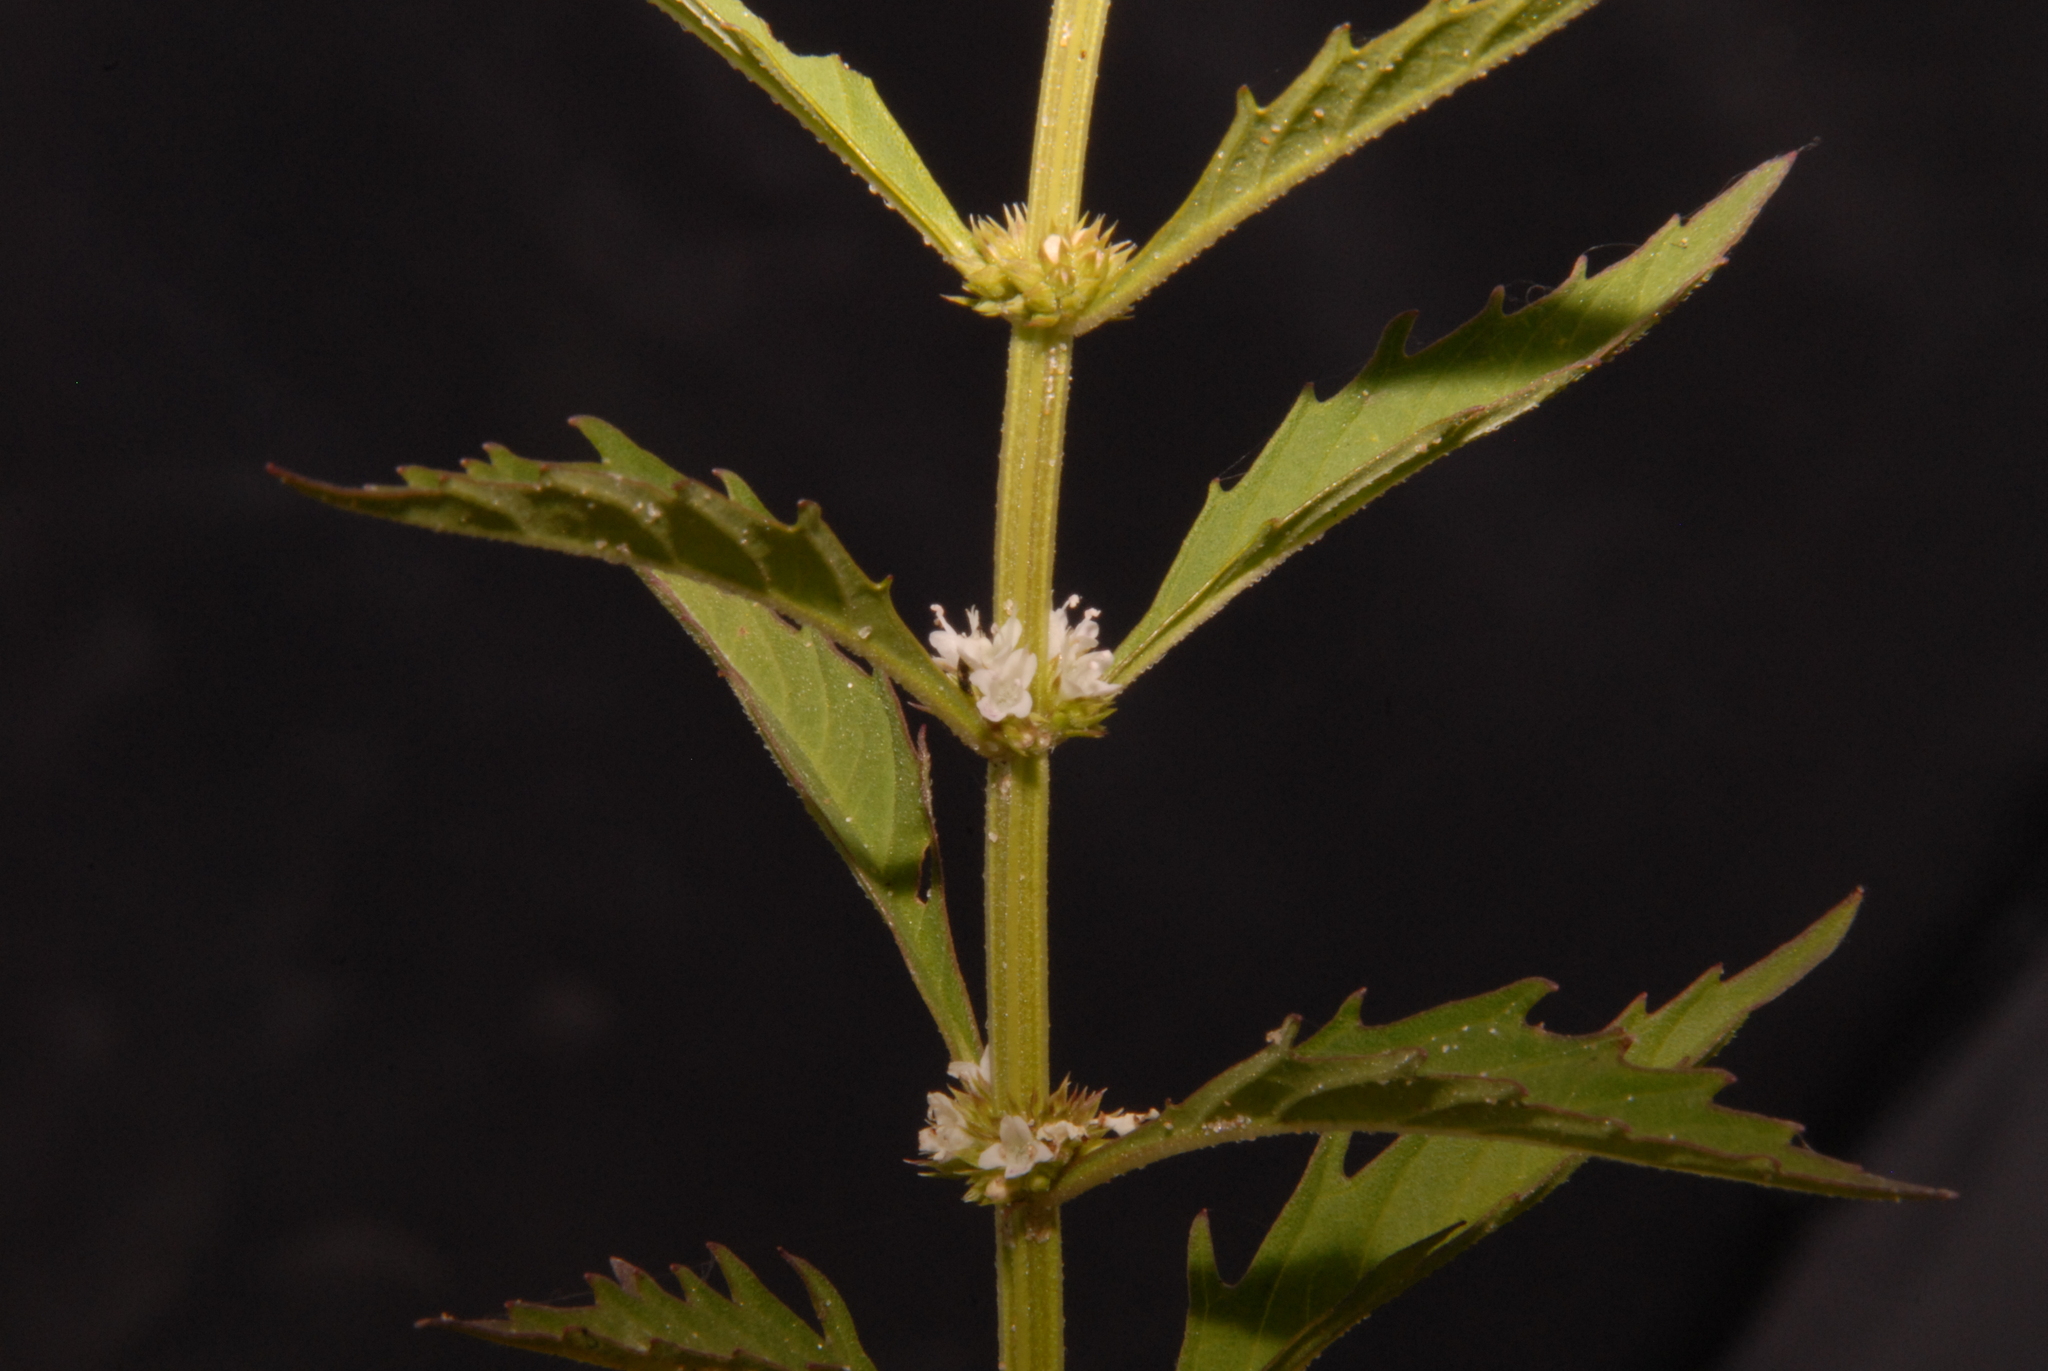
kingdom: Plantae
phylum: Tracheophyta
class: Magnoliopsida
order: Lamiales
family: Lamiaceae
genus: Lycopus
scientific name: Lycopus americanus
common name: American bugleweed
